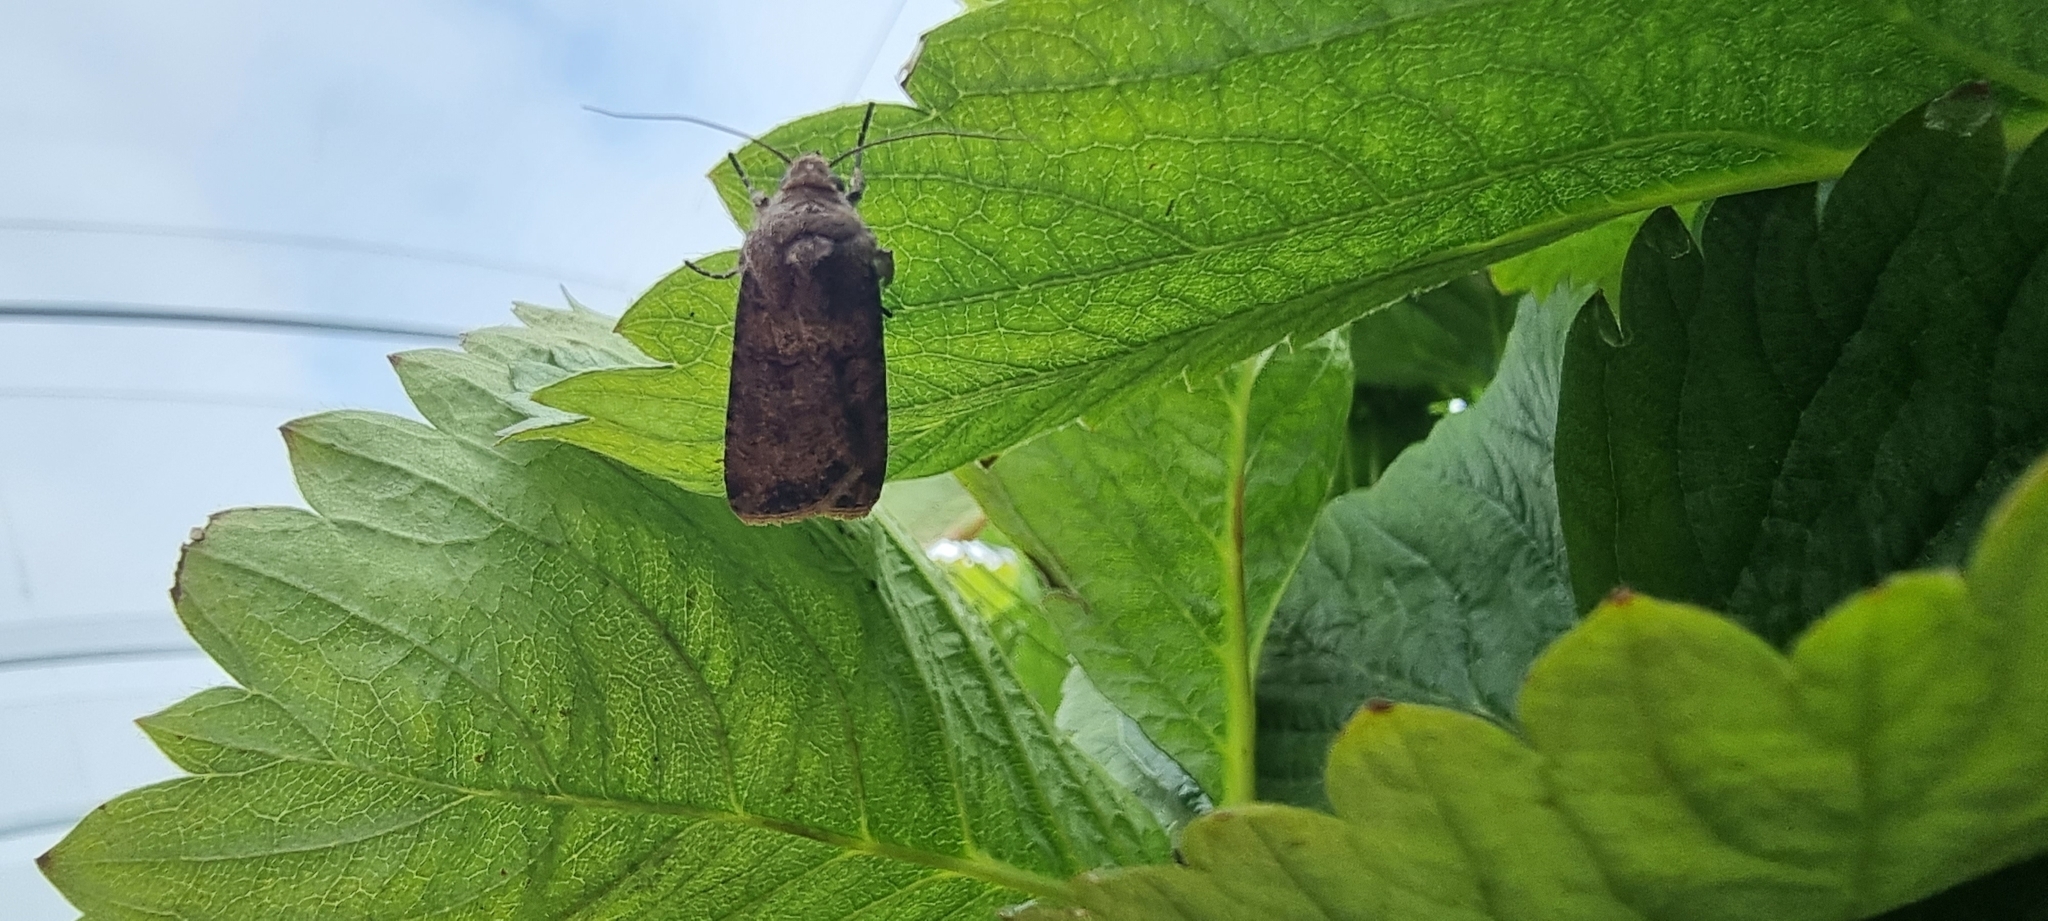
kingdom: Animalia
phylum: Arthropoda
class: Insecta
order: Lepidoptera
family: Noctuidae
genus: Agrotis
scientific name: Agrotis segetum
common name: Turnip moth
